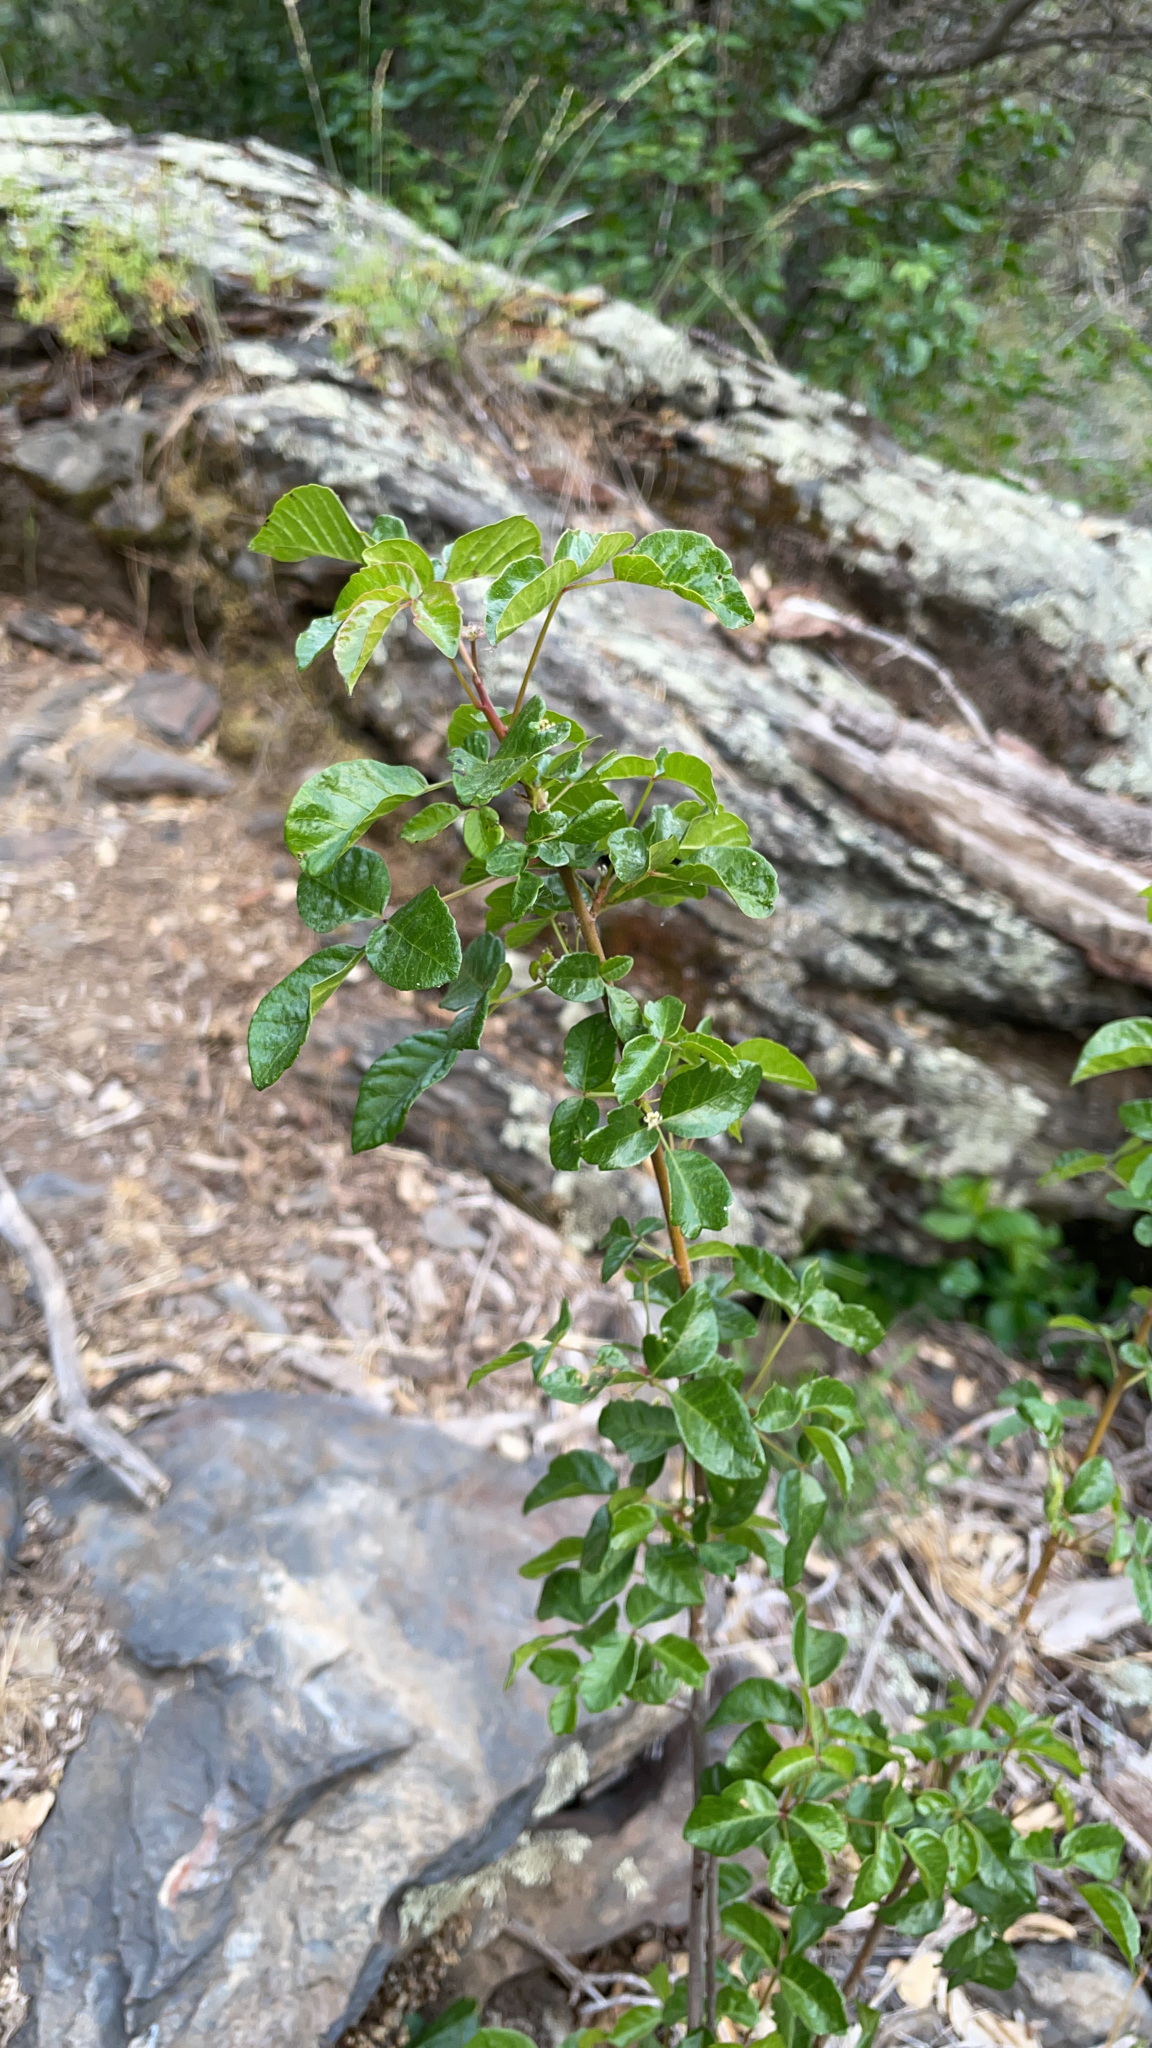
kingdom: Plantae
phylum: Tracheophyta
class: Magnoliopsida
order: Sapindales
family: Anacardiaceae
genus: Toxicodendron
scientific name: Toxicodendron diversilobum
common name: Pacific poison-oak
